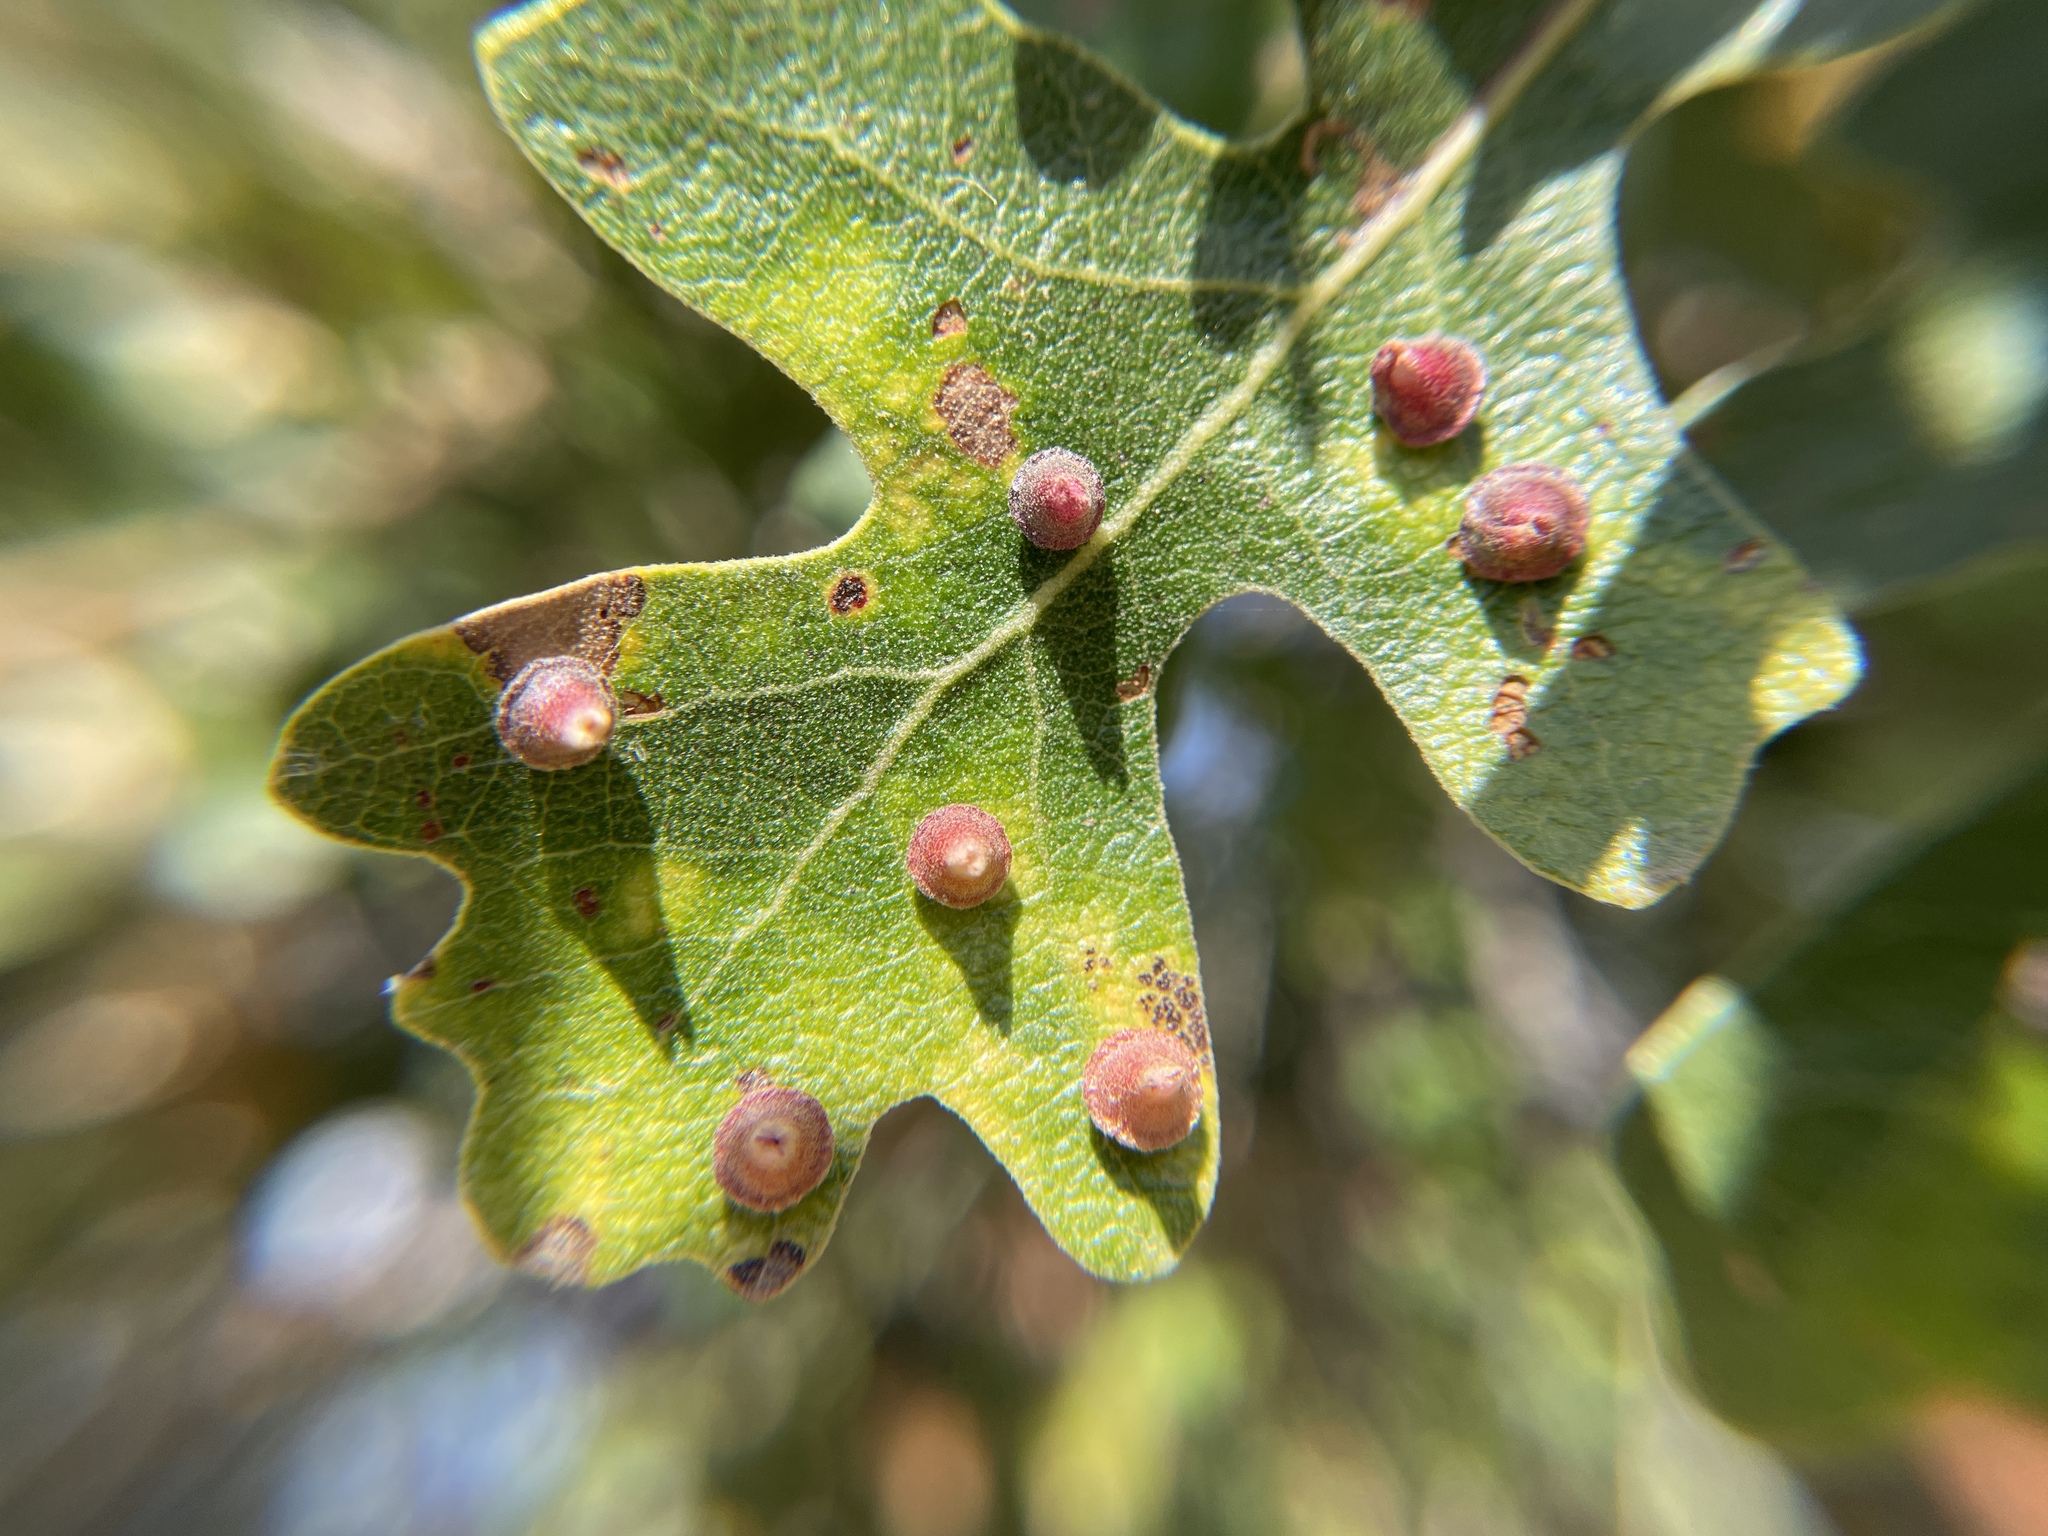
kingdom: Animalia
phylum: Arthropoda
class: Insecta
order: Hymenoptera
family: Cynipidae
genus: Andricus
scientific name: Andricus
